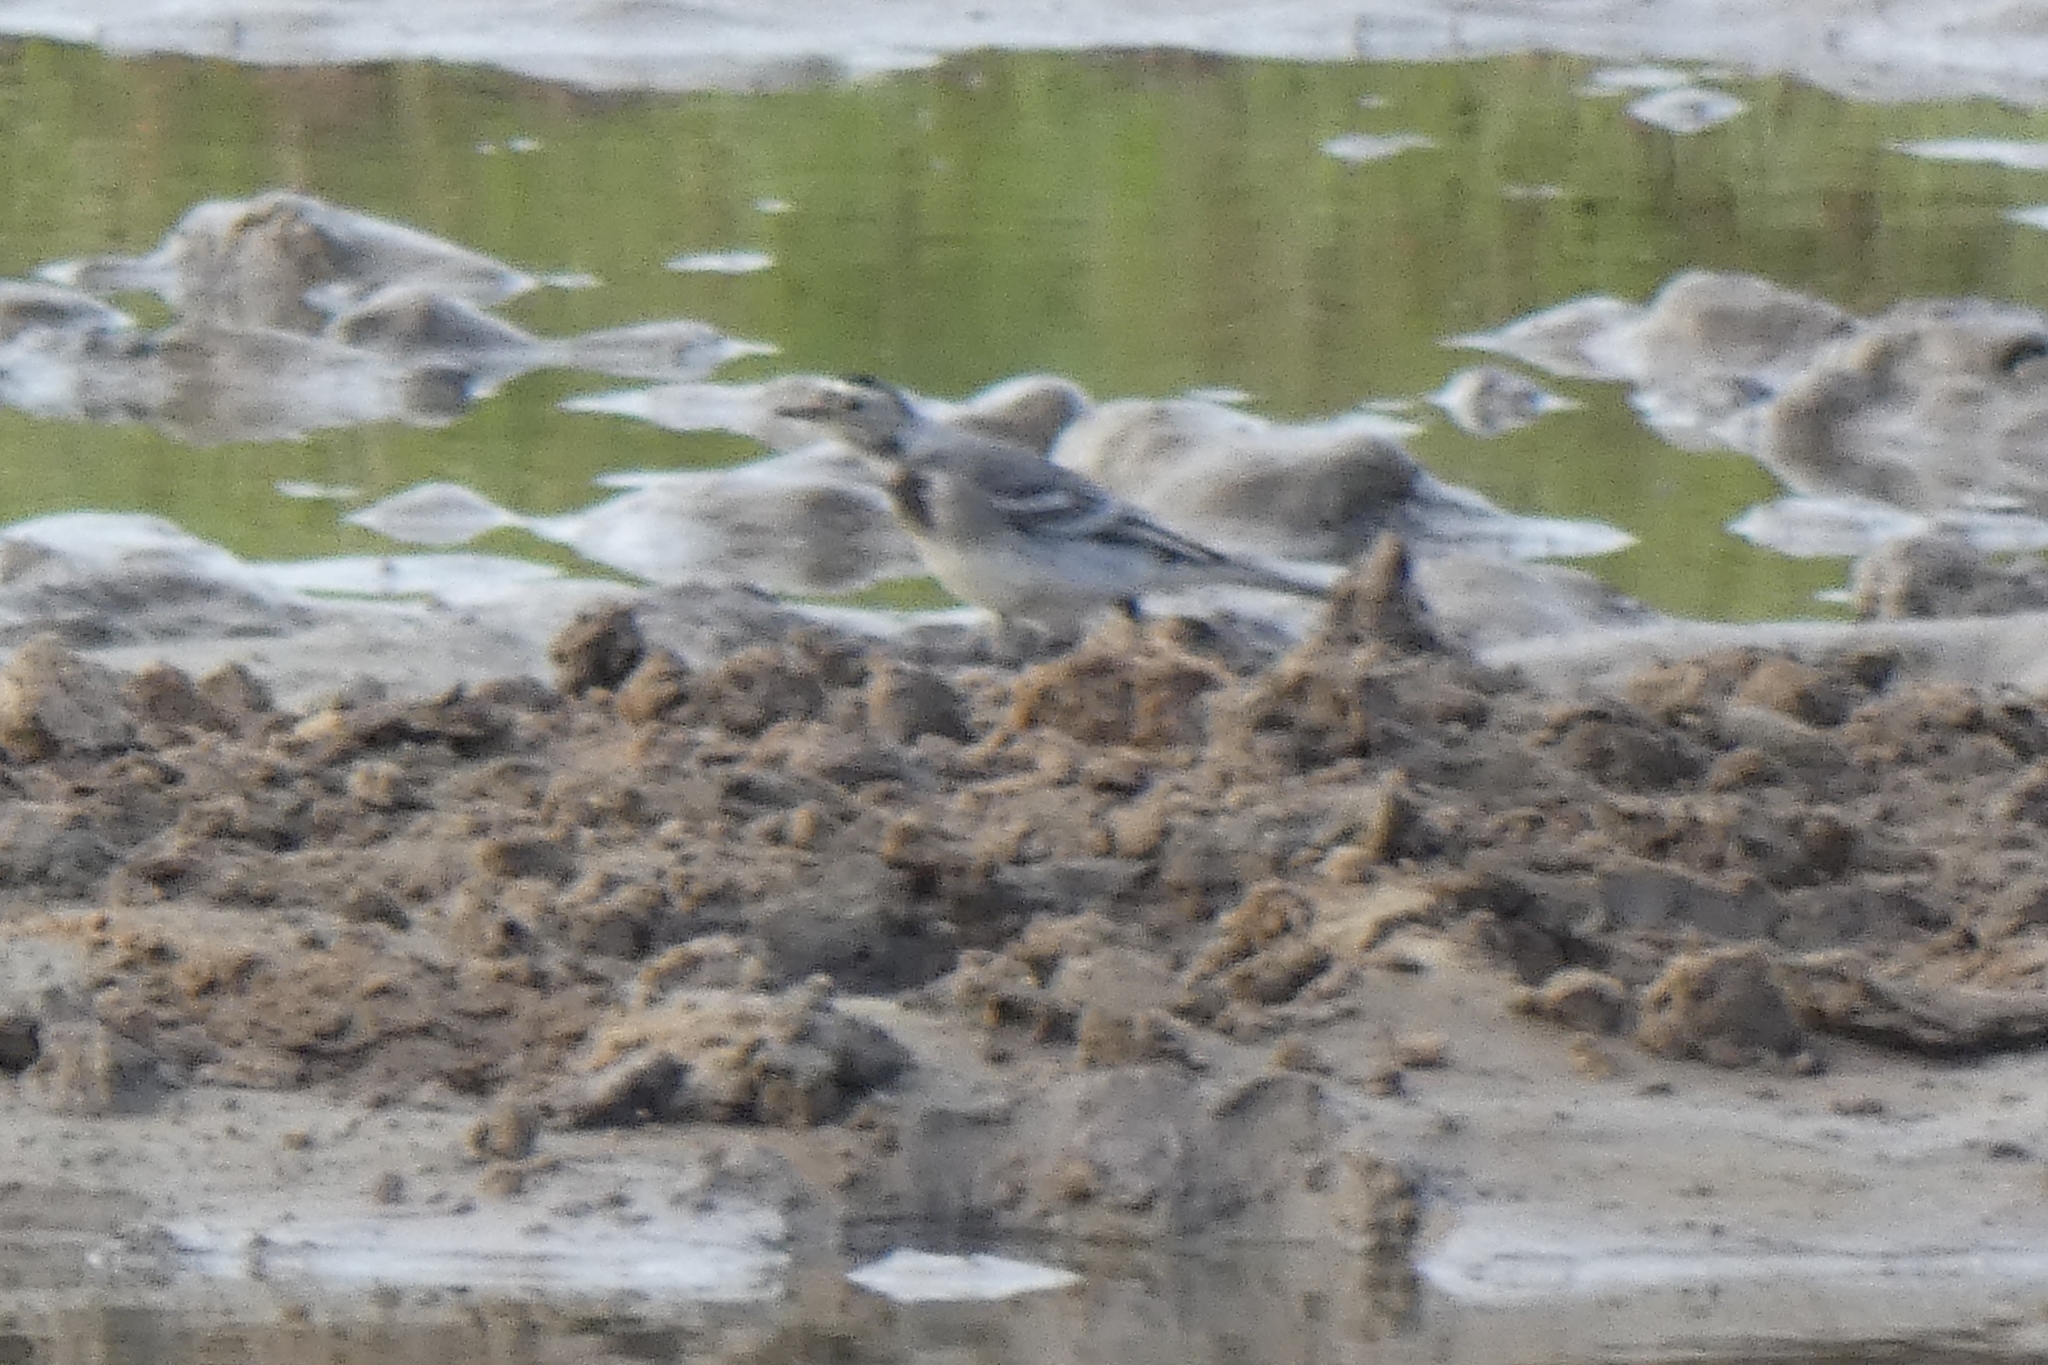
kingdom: Animalia
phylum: Chordata
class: Aves
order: Passeriformes
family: Motacillidae
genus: Motacilla
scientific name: Motacilla alba
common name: White wagtail
